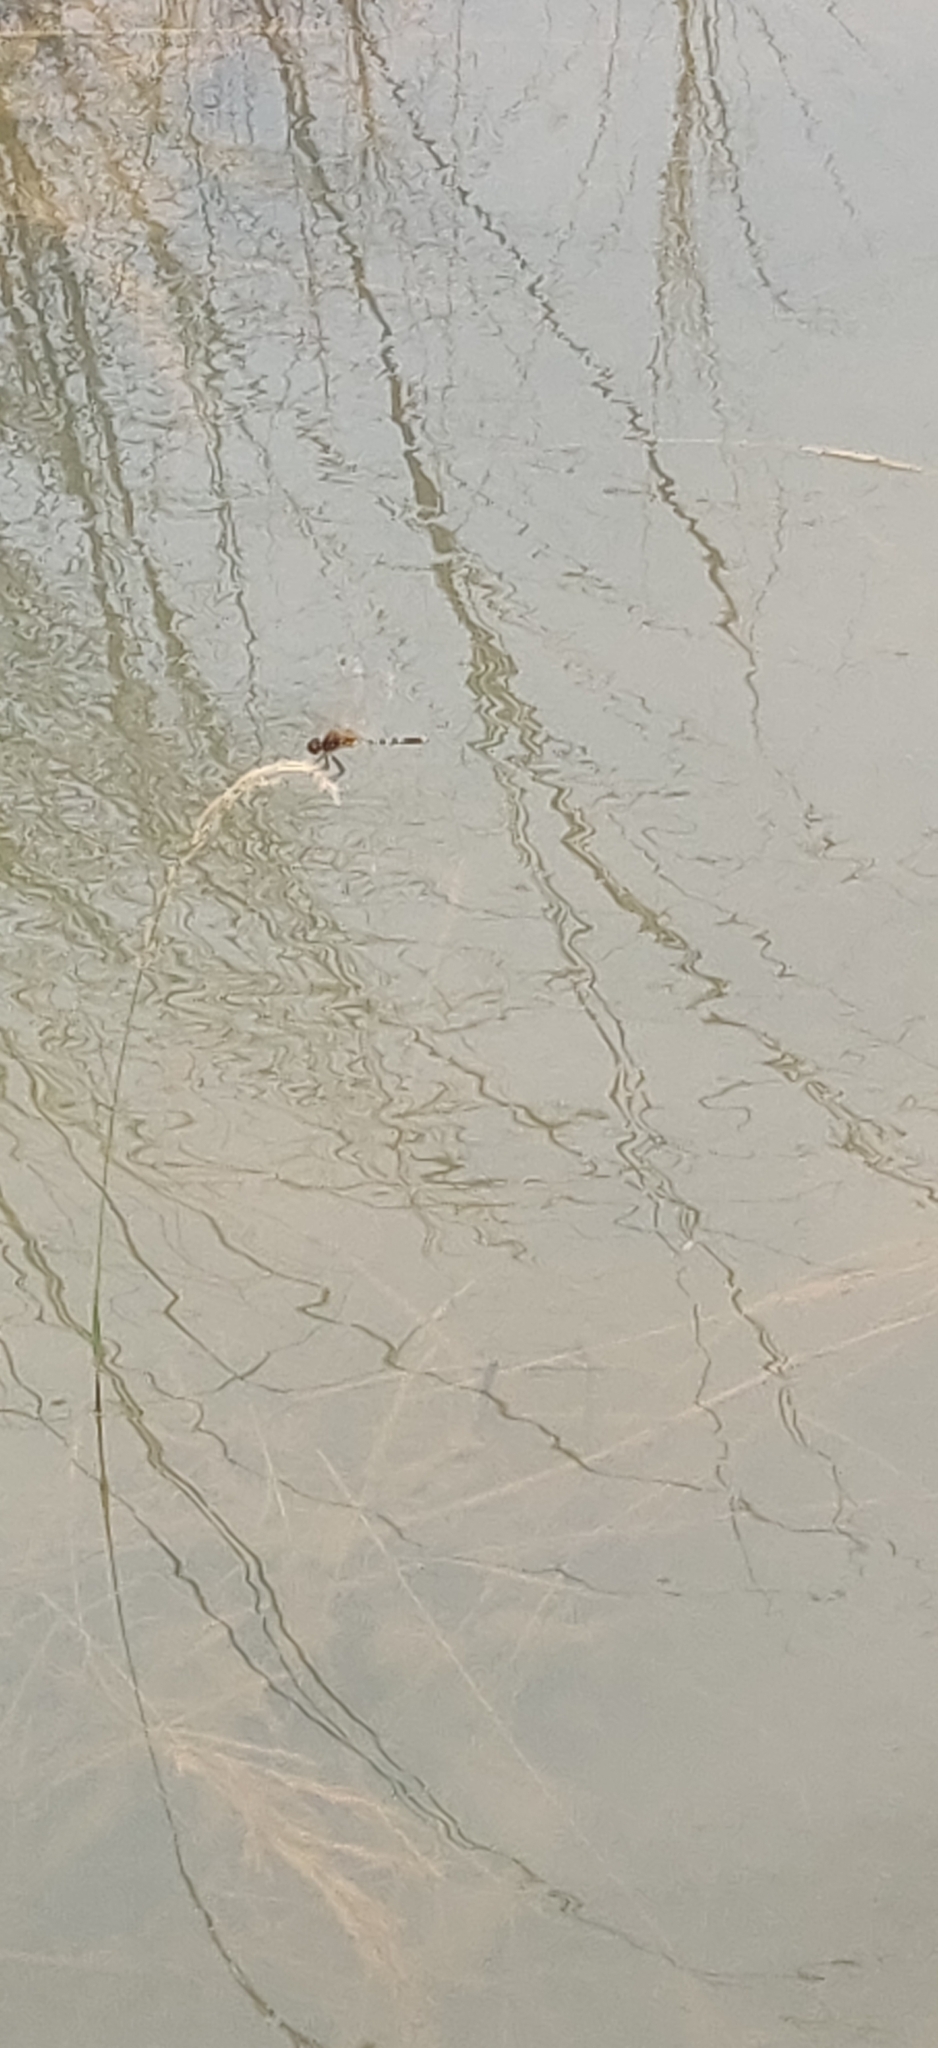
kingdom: Animalia
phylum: Arthropoda
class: Insecta
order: Odonata
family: Libellulidae
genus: Trithemis
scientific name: Trithemis pallidinervis
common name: Dancing dropwing
